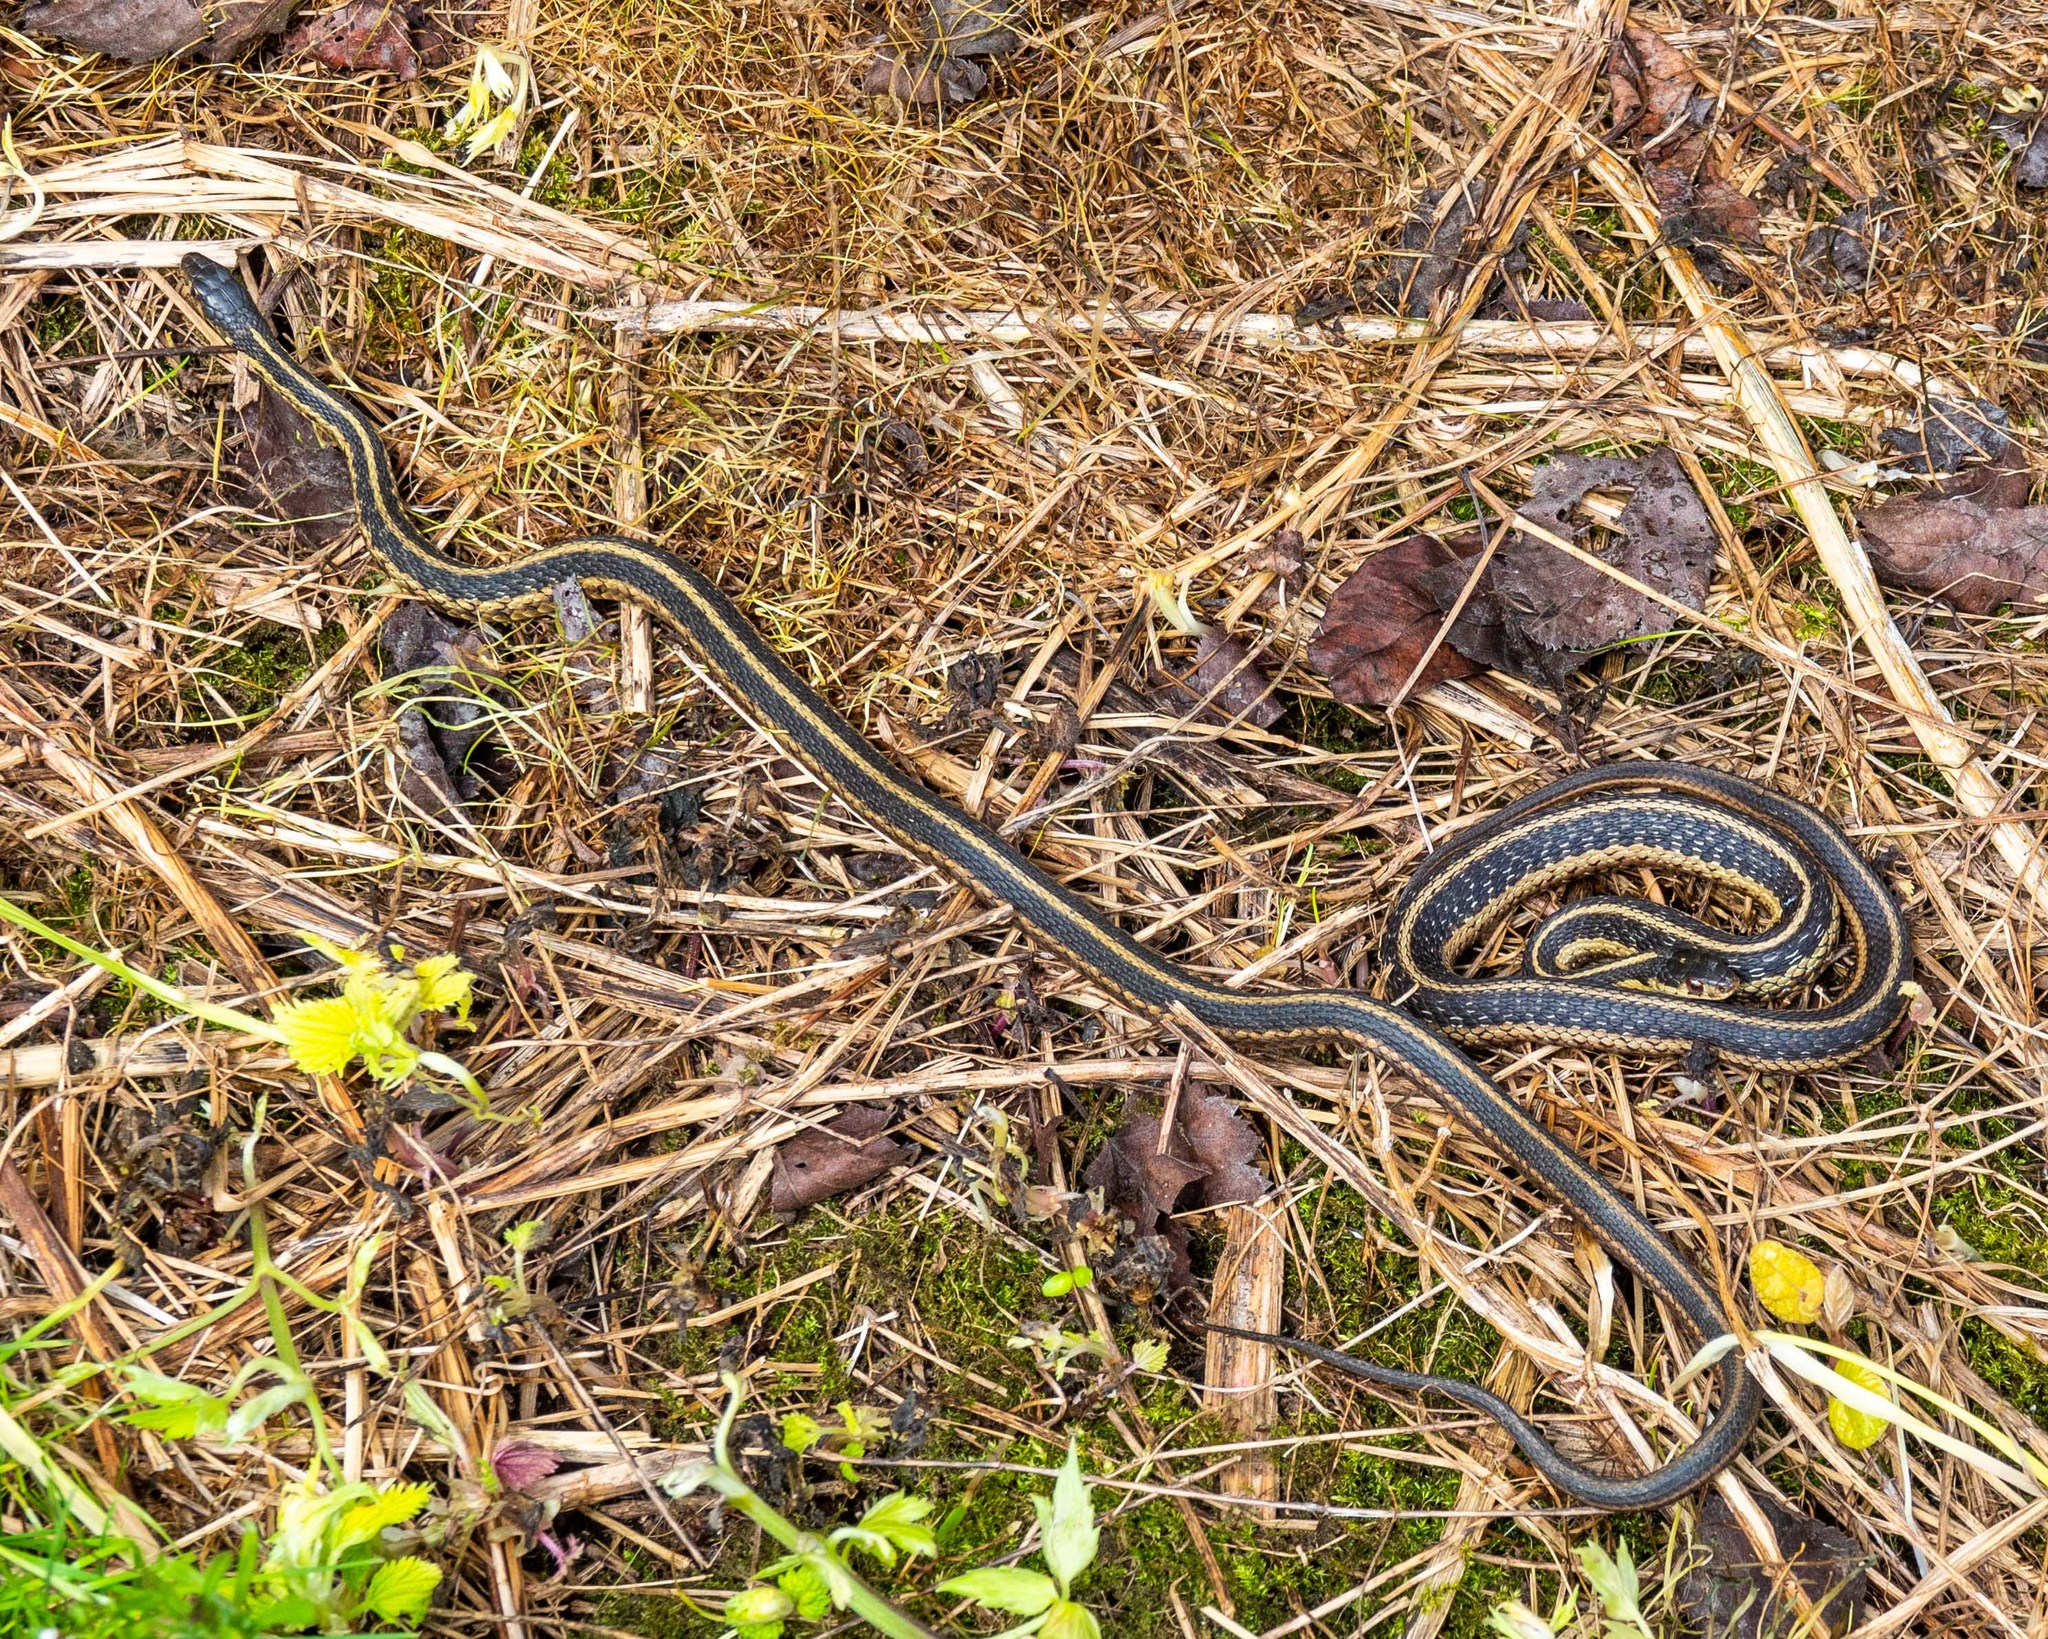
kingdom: Animalia
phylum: Chordata
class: Squamata
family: Colubridae
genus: Thamnophis
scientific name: Thamnophis sirtalis
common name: Common garter snake
